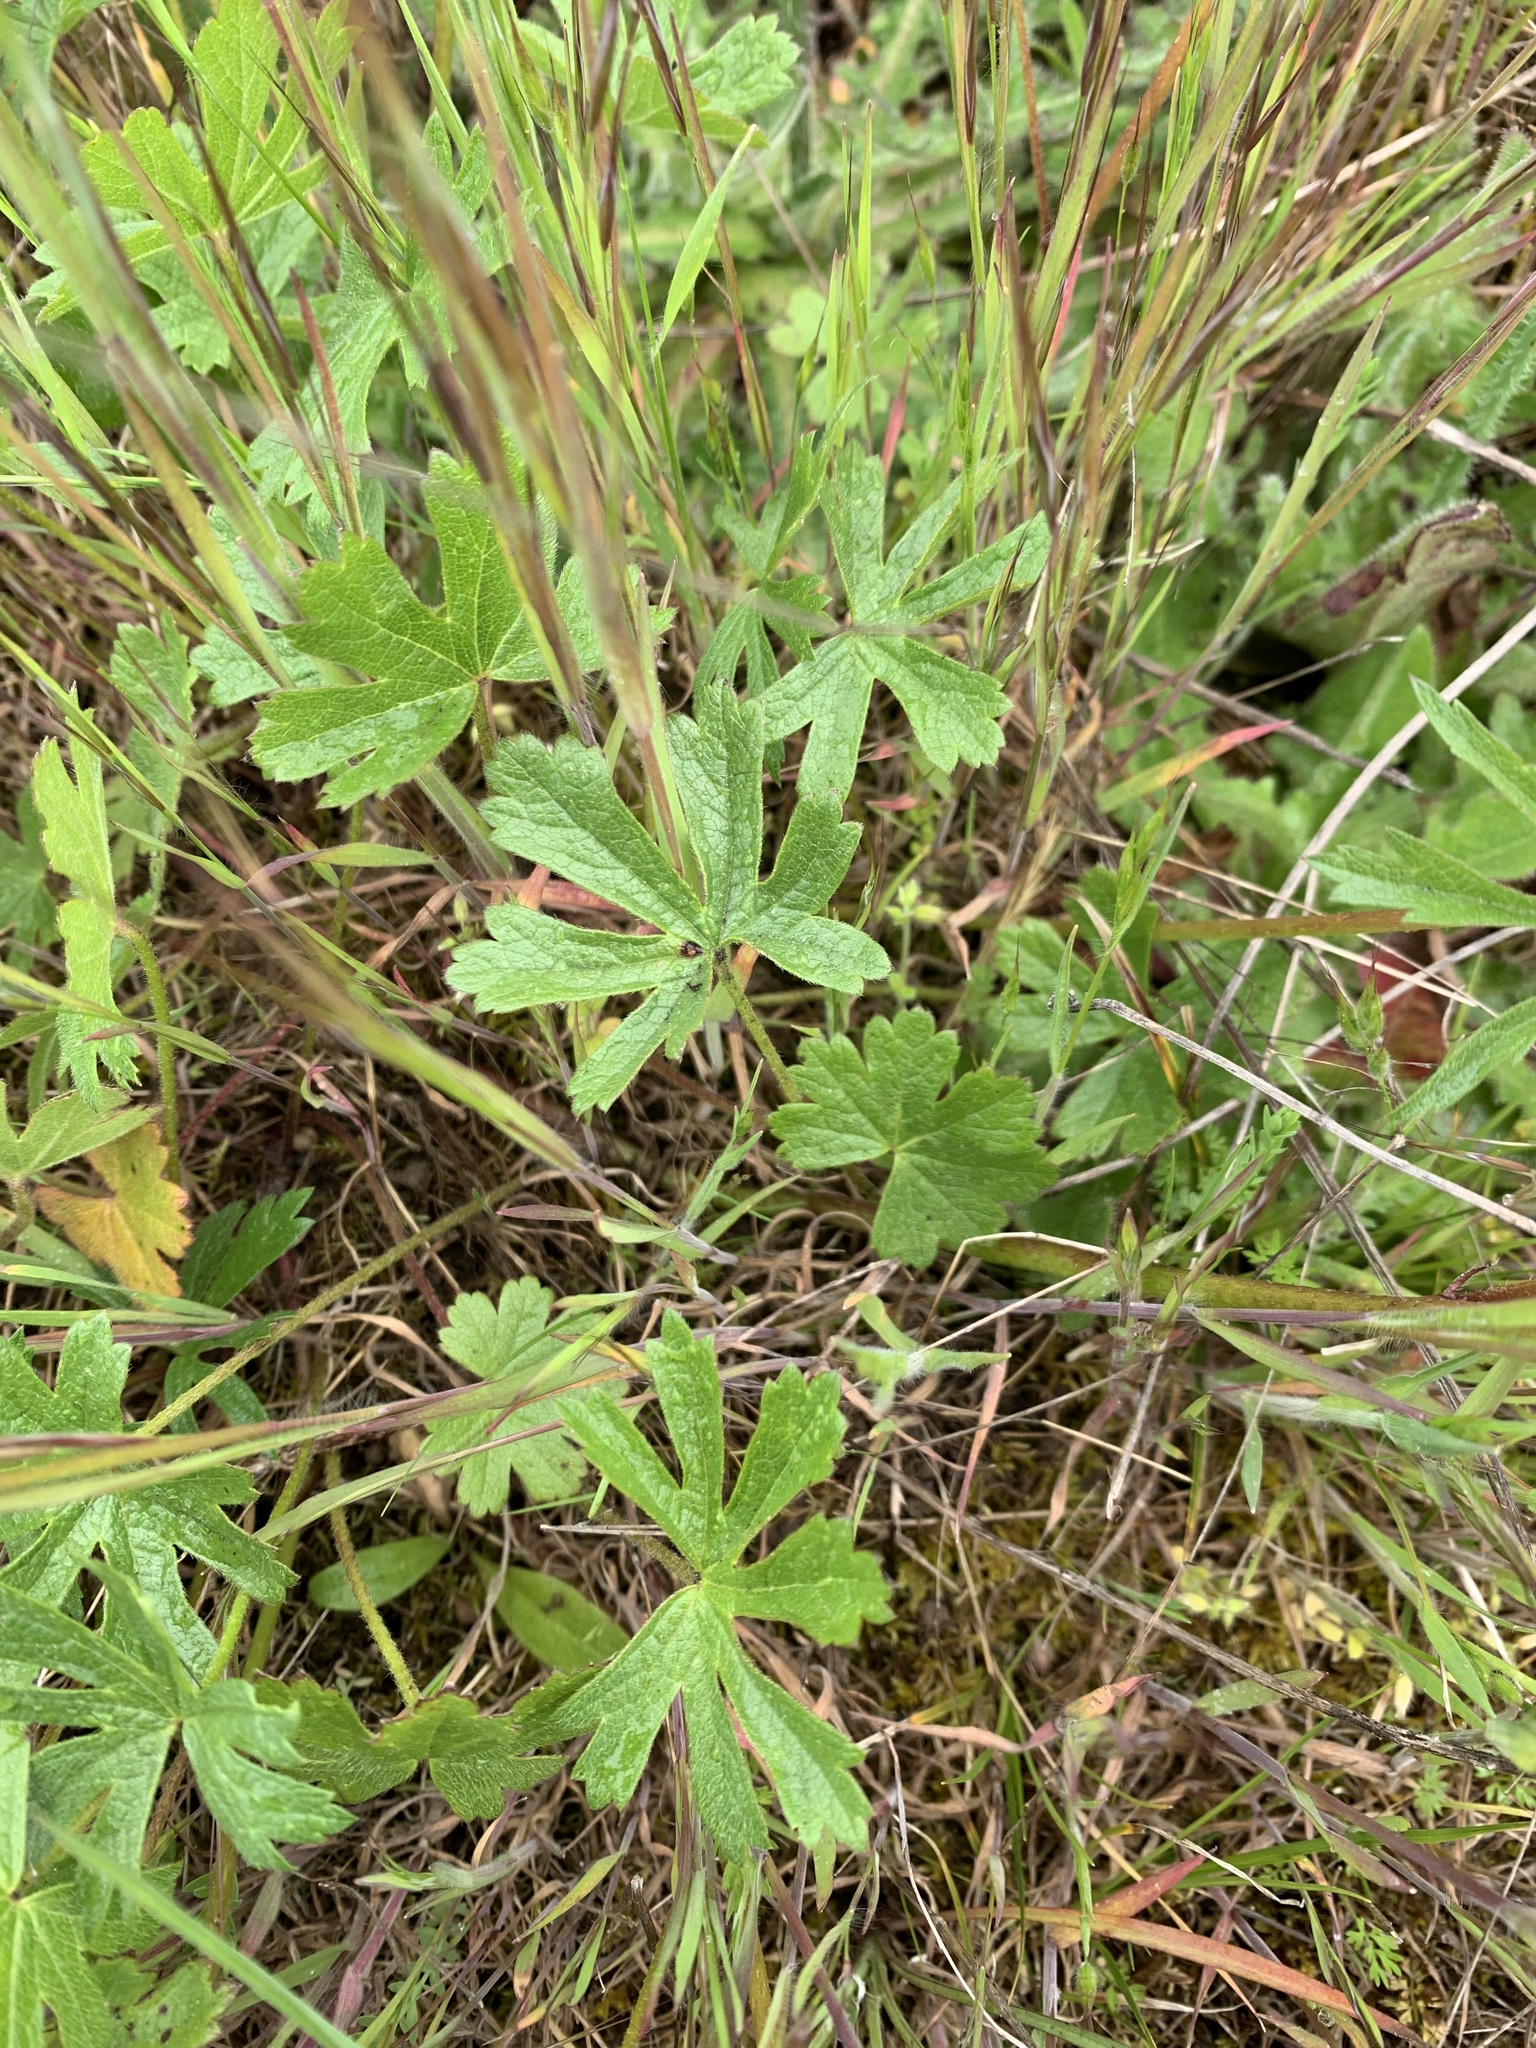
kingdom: Plantae
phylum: Tracheophyta
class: Magnoliopsida
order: Malvales
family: Malvaceae
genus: Sidalcea
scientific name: Sidalcea asprella
